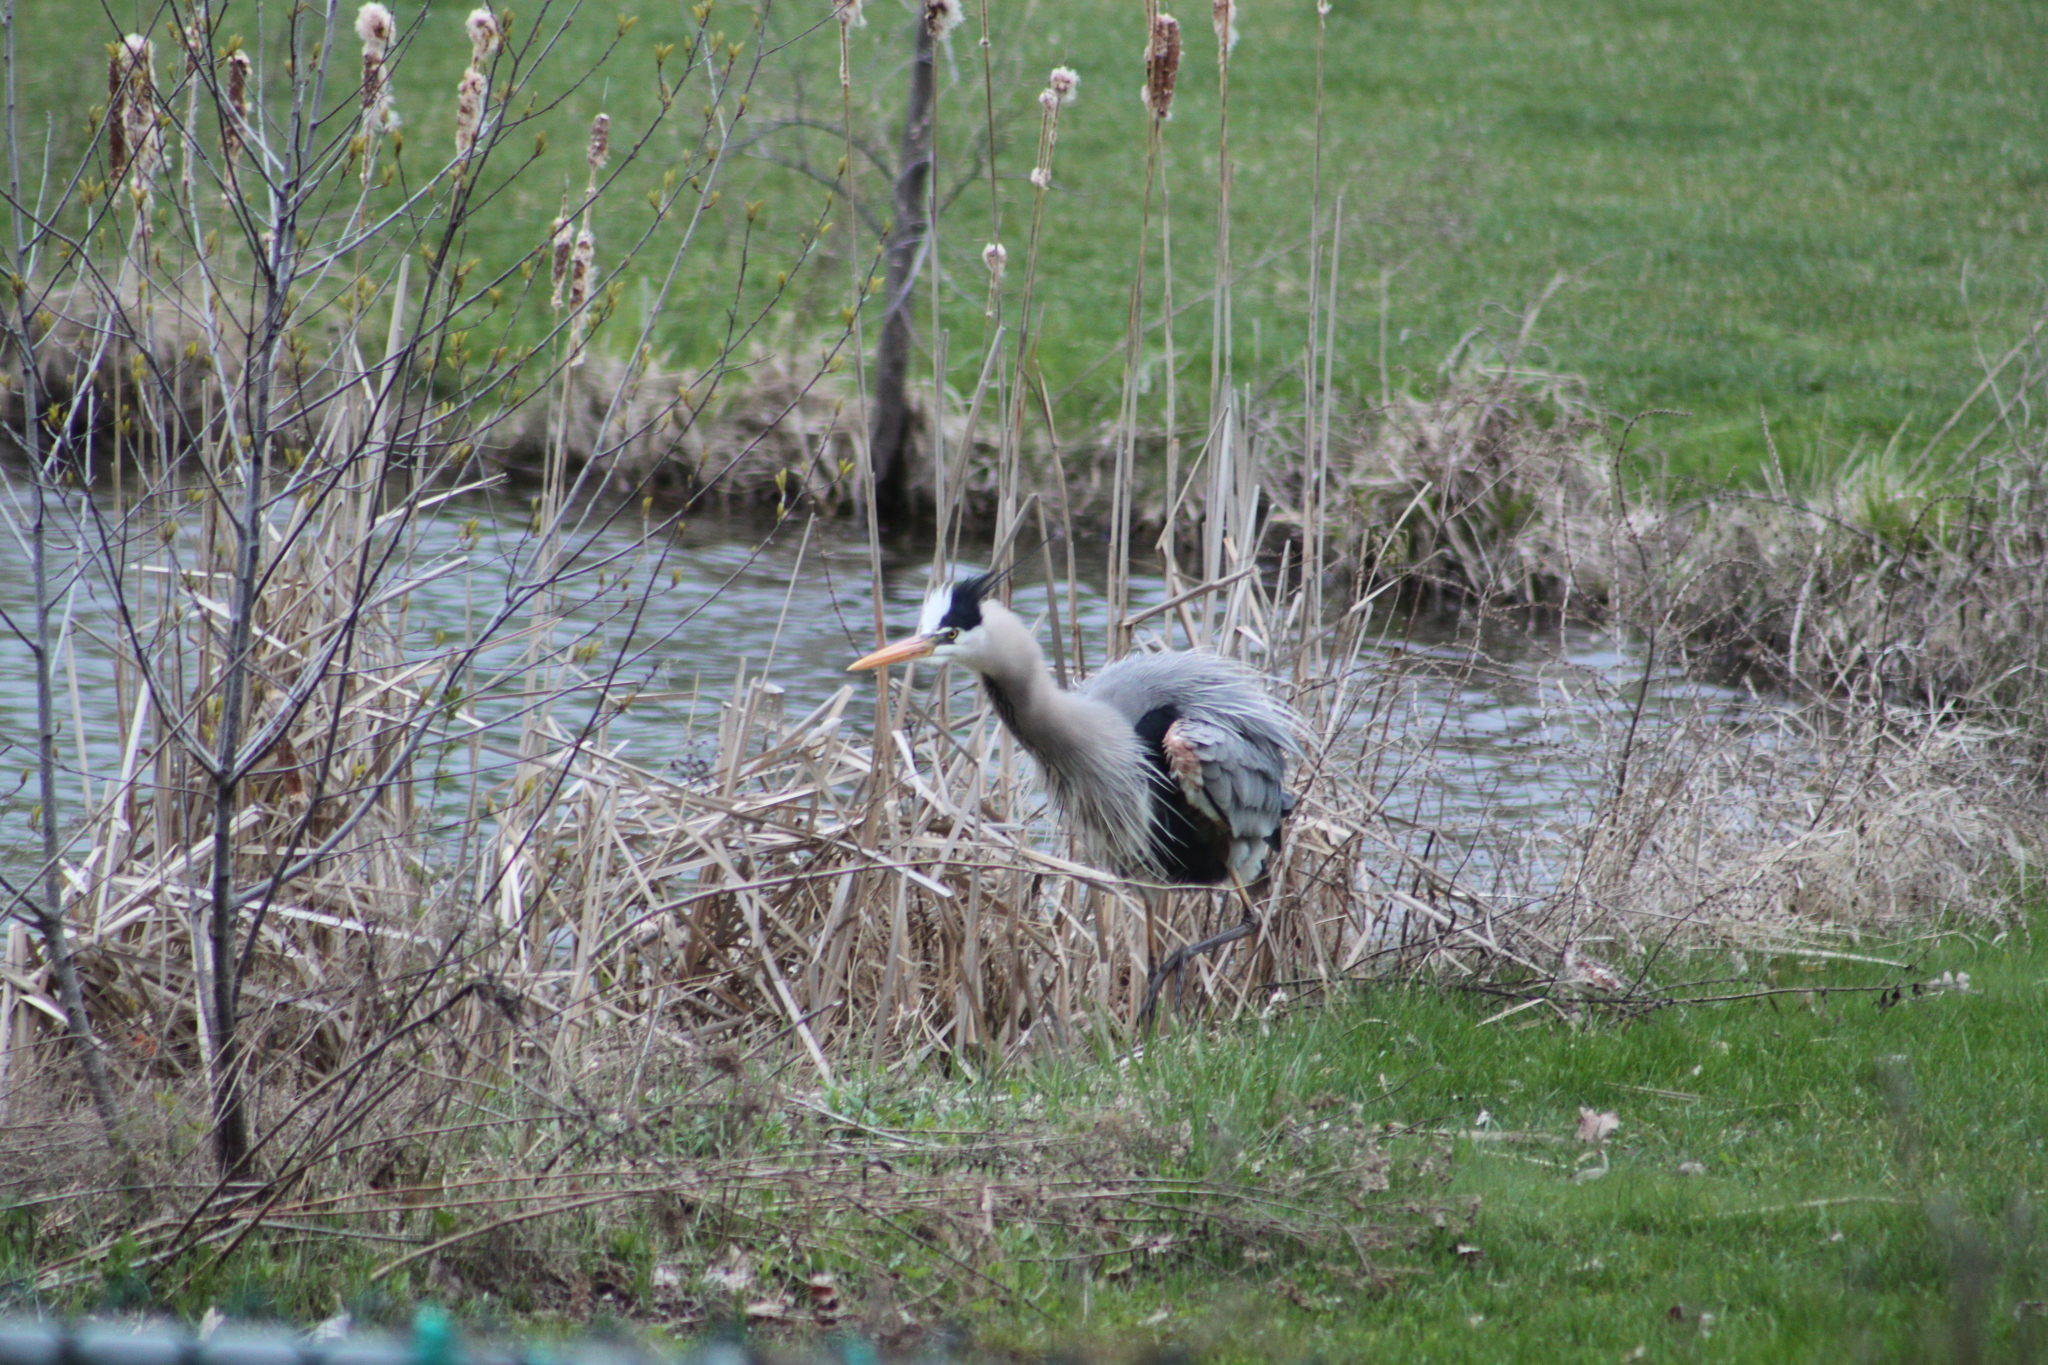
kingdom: Animalia
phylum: Chordata
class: Aves
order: Pelecaniformes
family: Ardeidae
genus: Ardea
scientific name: Ardea herodias
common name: Great blue heron
